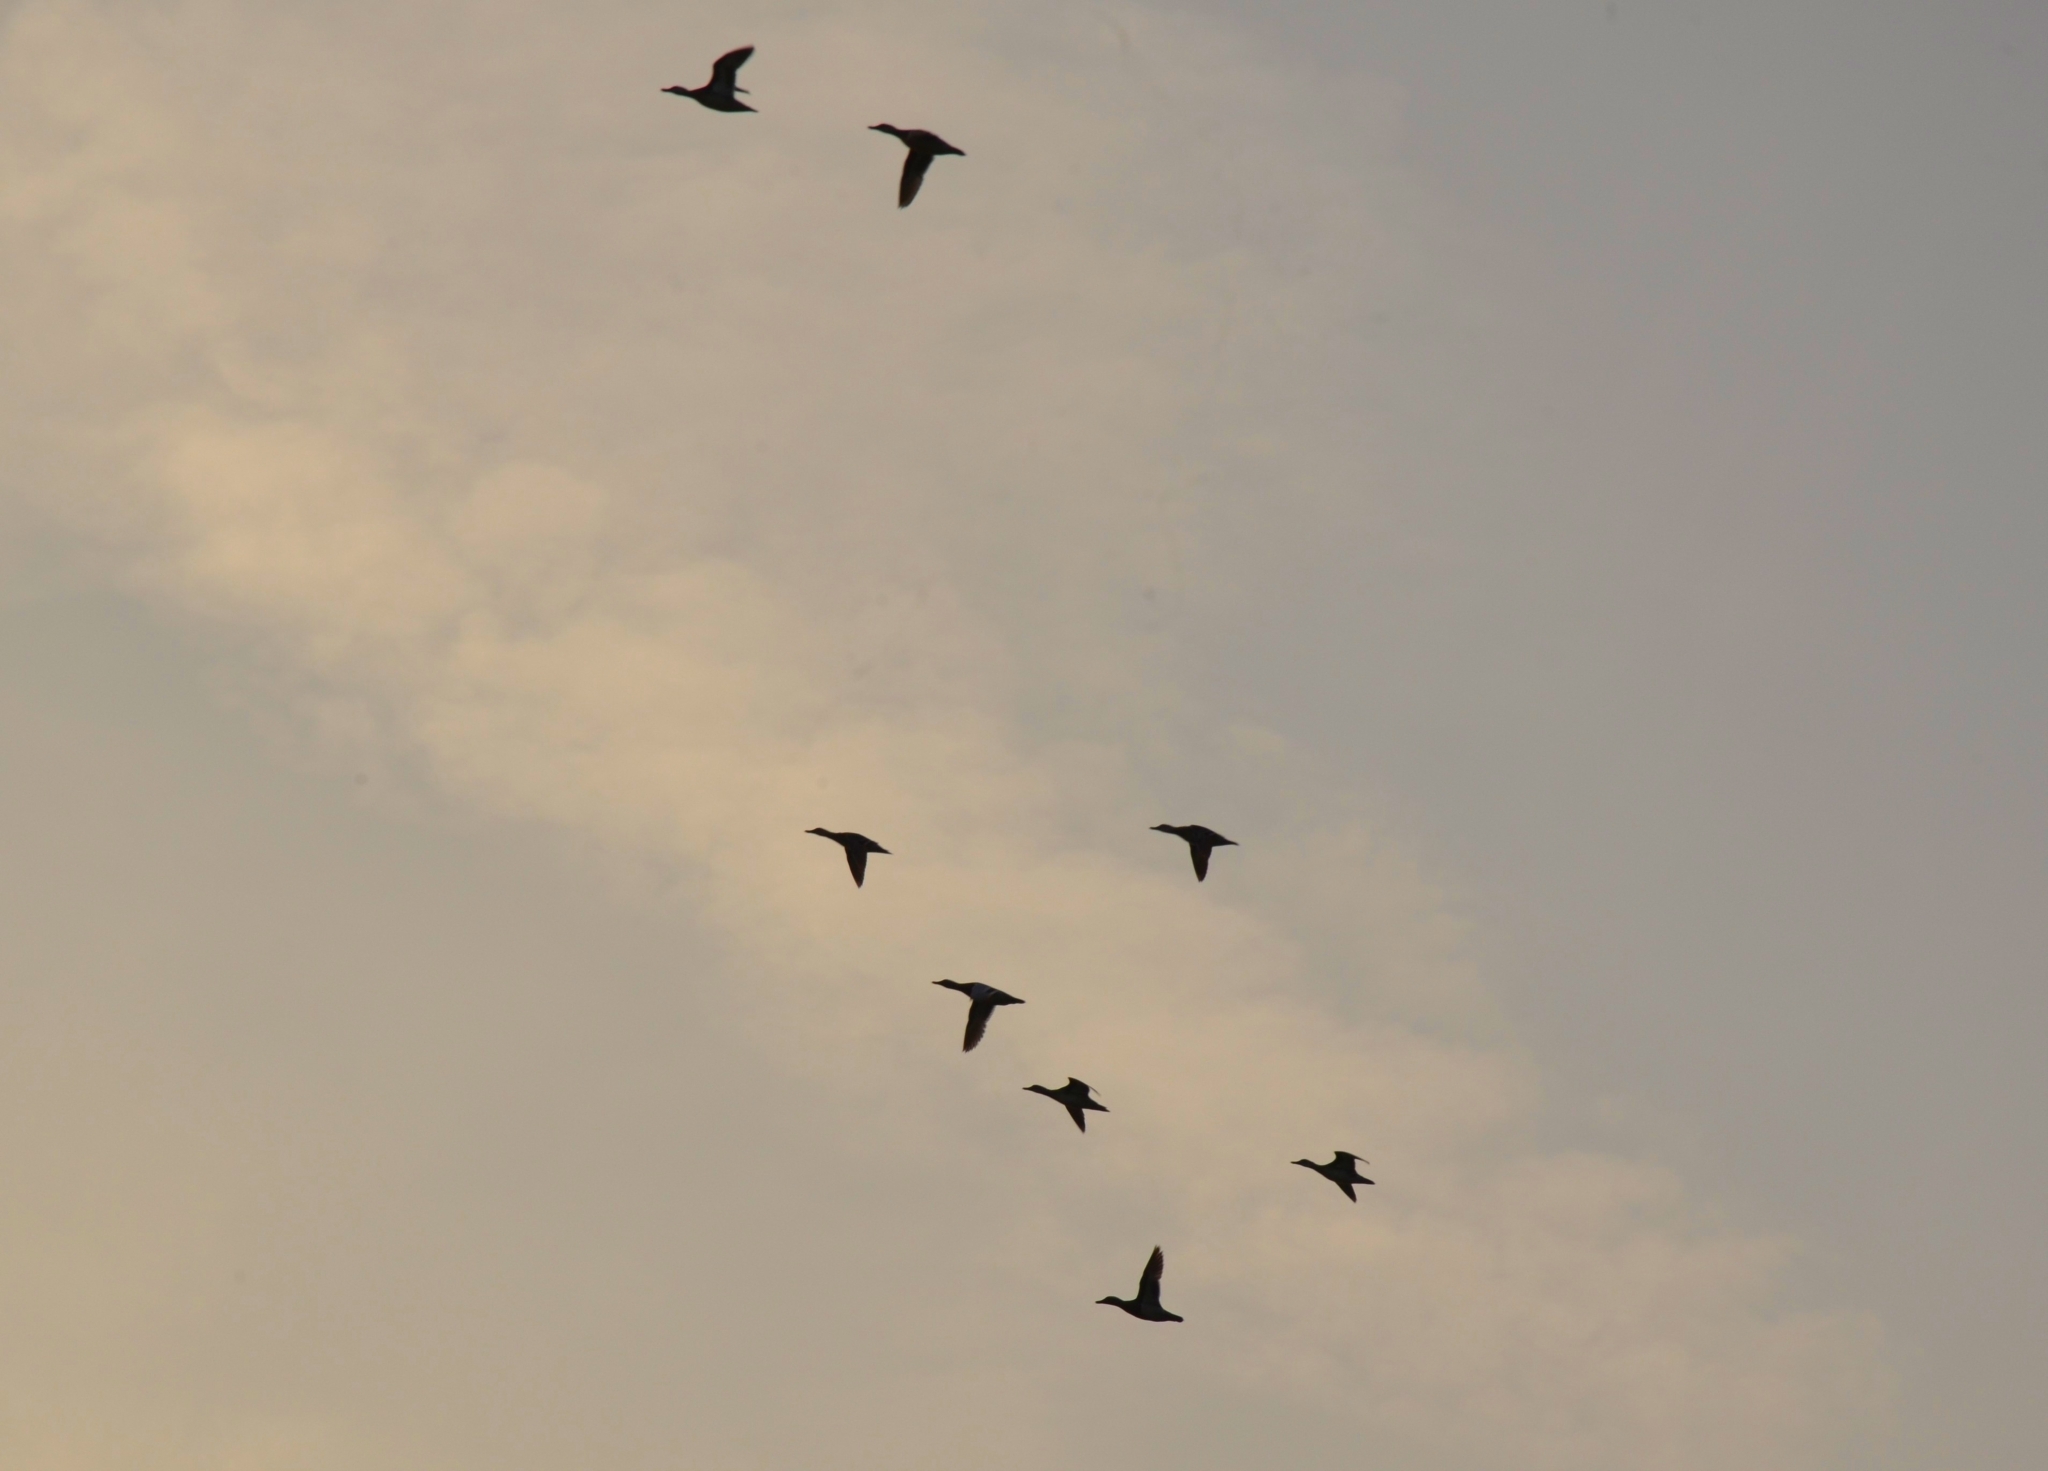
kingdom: Animalia
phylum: Chordata
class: Aves
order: Anseriformes
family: Anatidae
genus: Spatula
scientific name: Spatula querquedula
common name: Garganey
